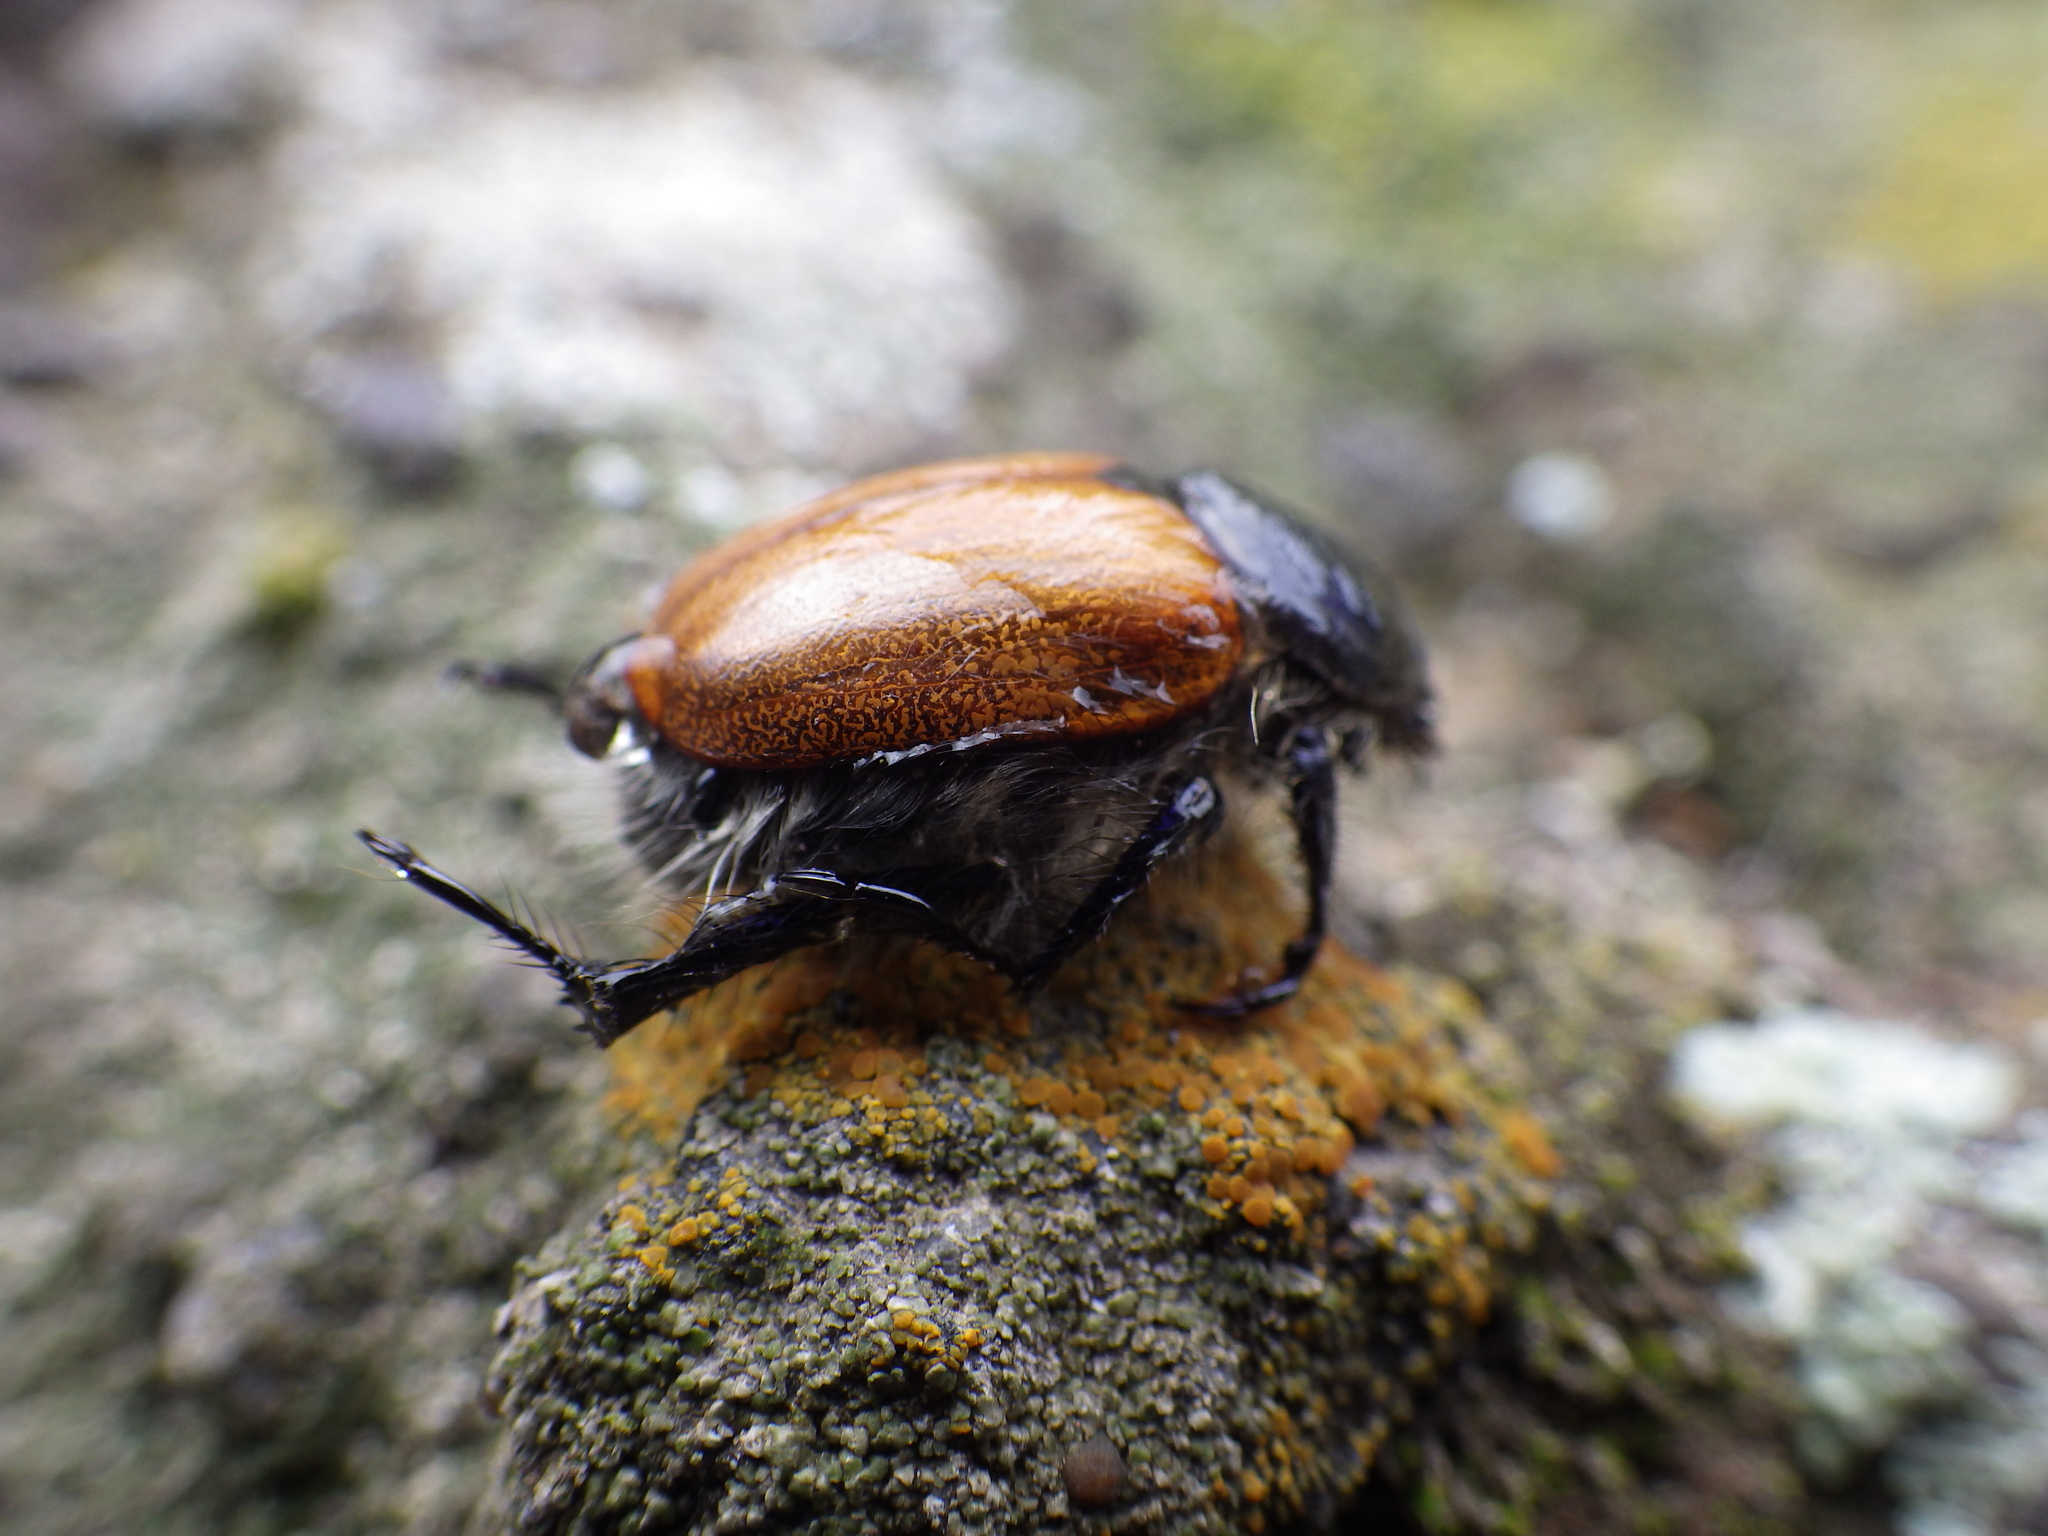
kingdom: Animalia
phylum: Arthropoda
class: Insecta
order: Coleoptera
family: Scarabaeidae
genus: Paracotalpa
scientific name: Paracotalpa ursina
